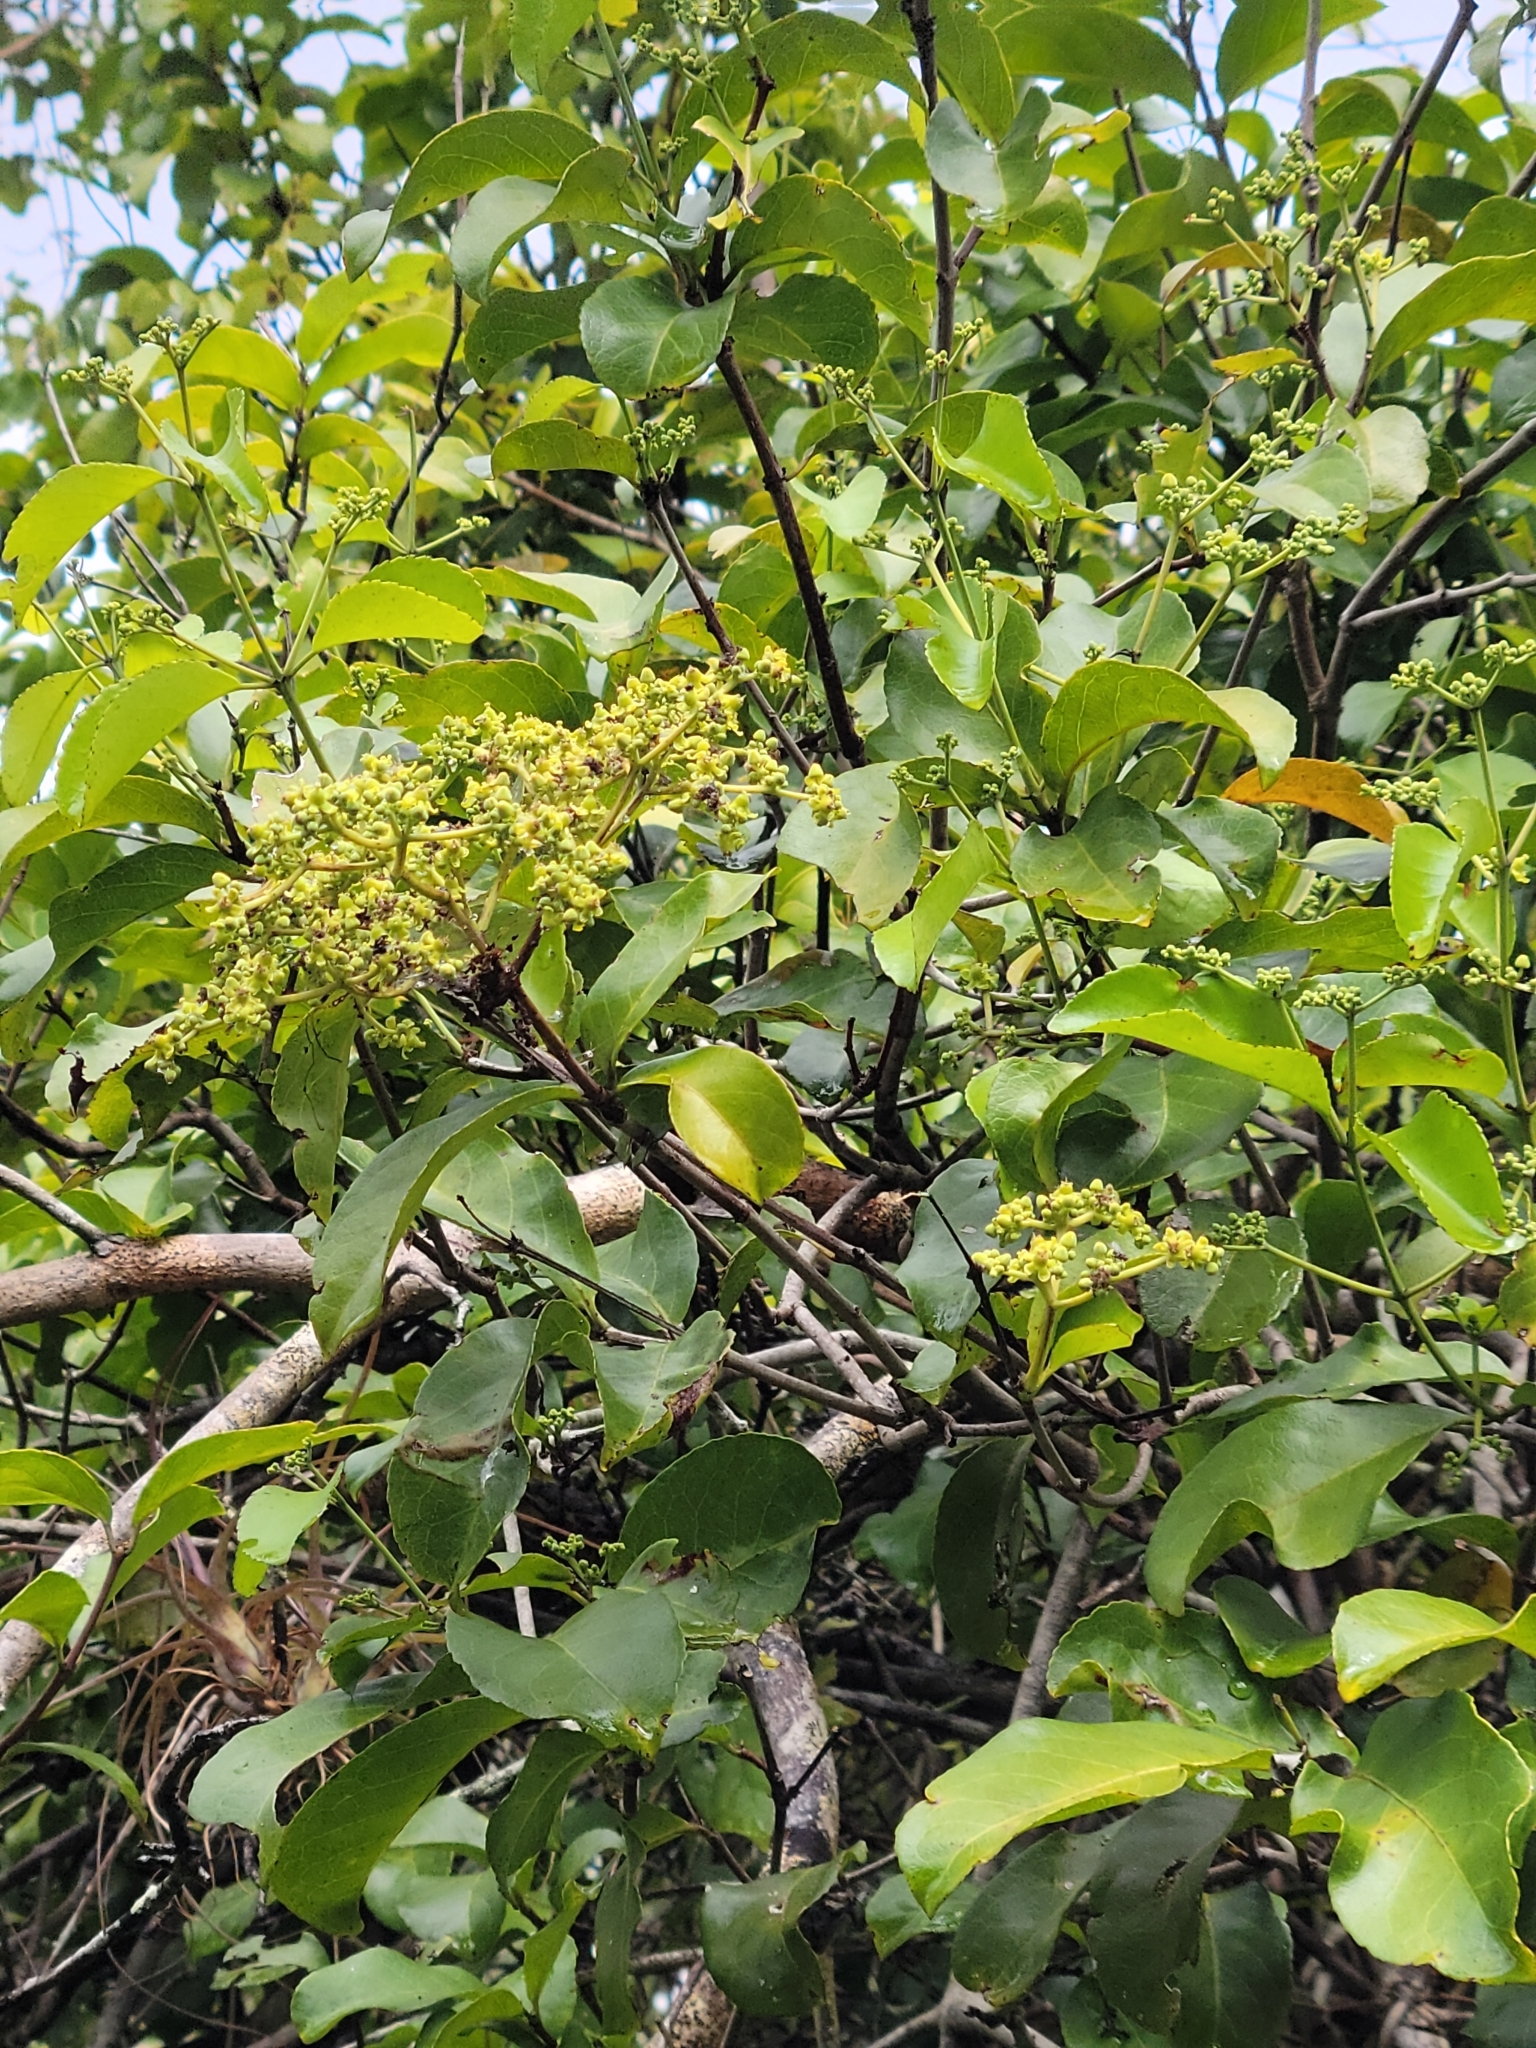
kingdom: Plantae
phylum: Tracheophyta
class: Magnoliopsida
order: Celastrales
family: Celastraceae
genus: Hippocratea
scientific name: Hippocratea volubilis
